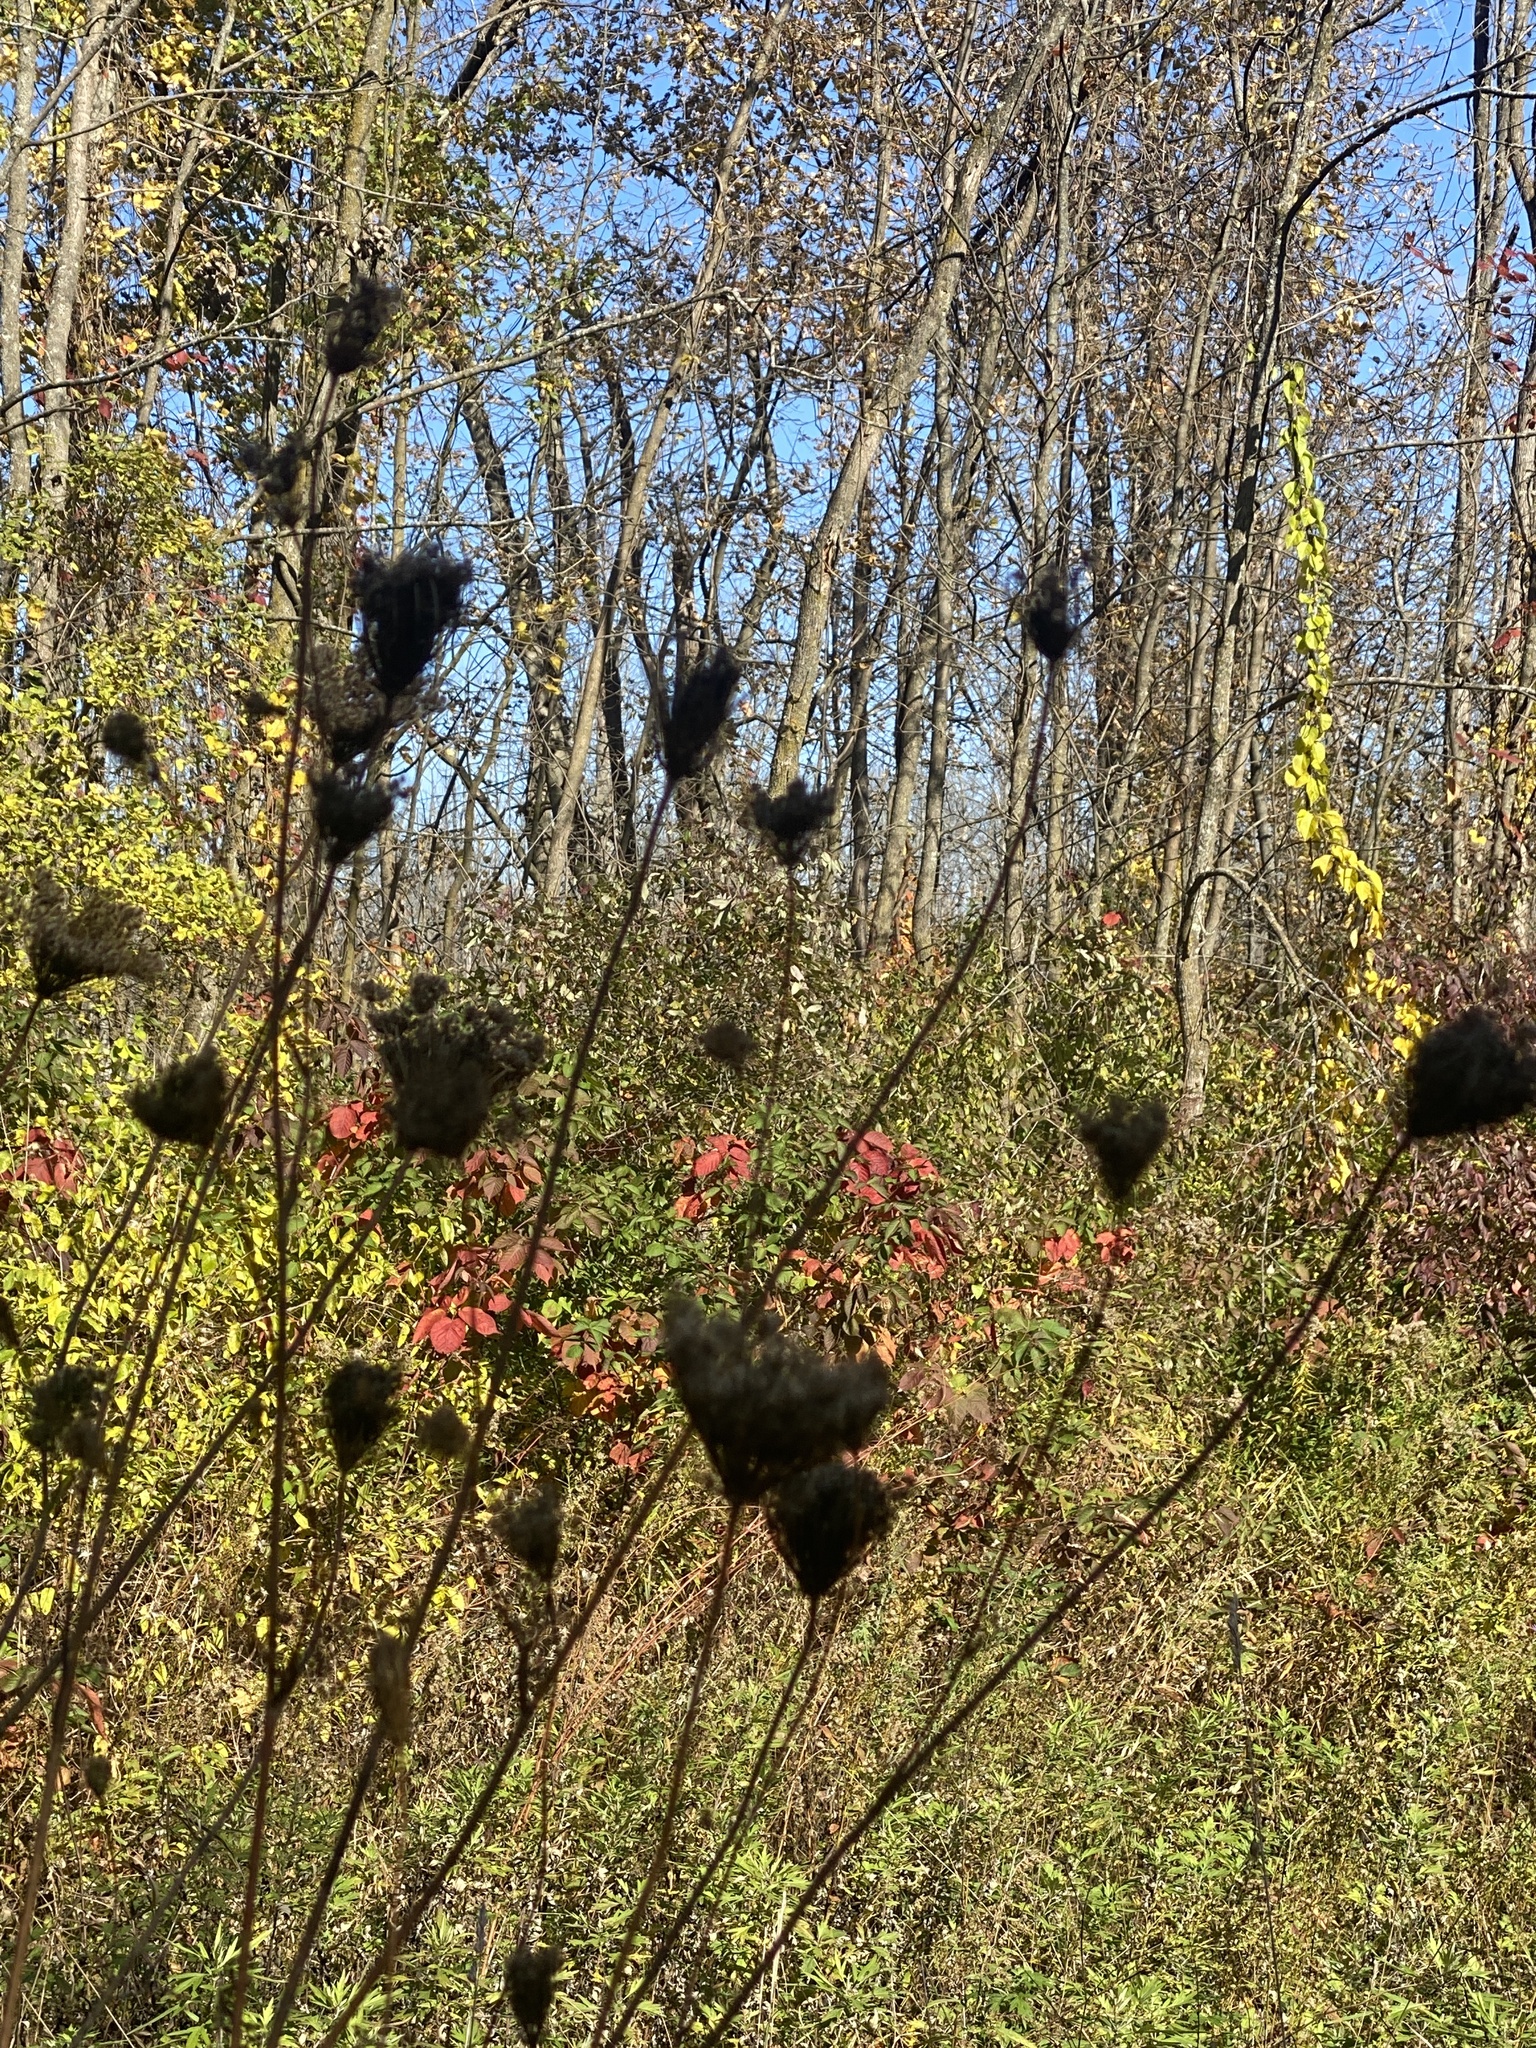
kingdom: Plantae
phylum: Tracheophyta
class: Magnoliopsida
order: Apiales
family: Apiaceae
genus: Daucus
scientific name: Daucus carota
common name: Wild carrot
